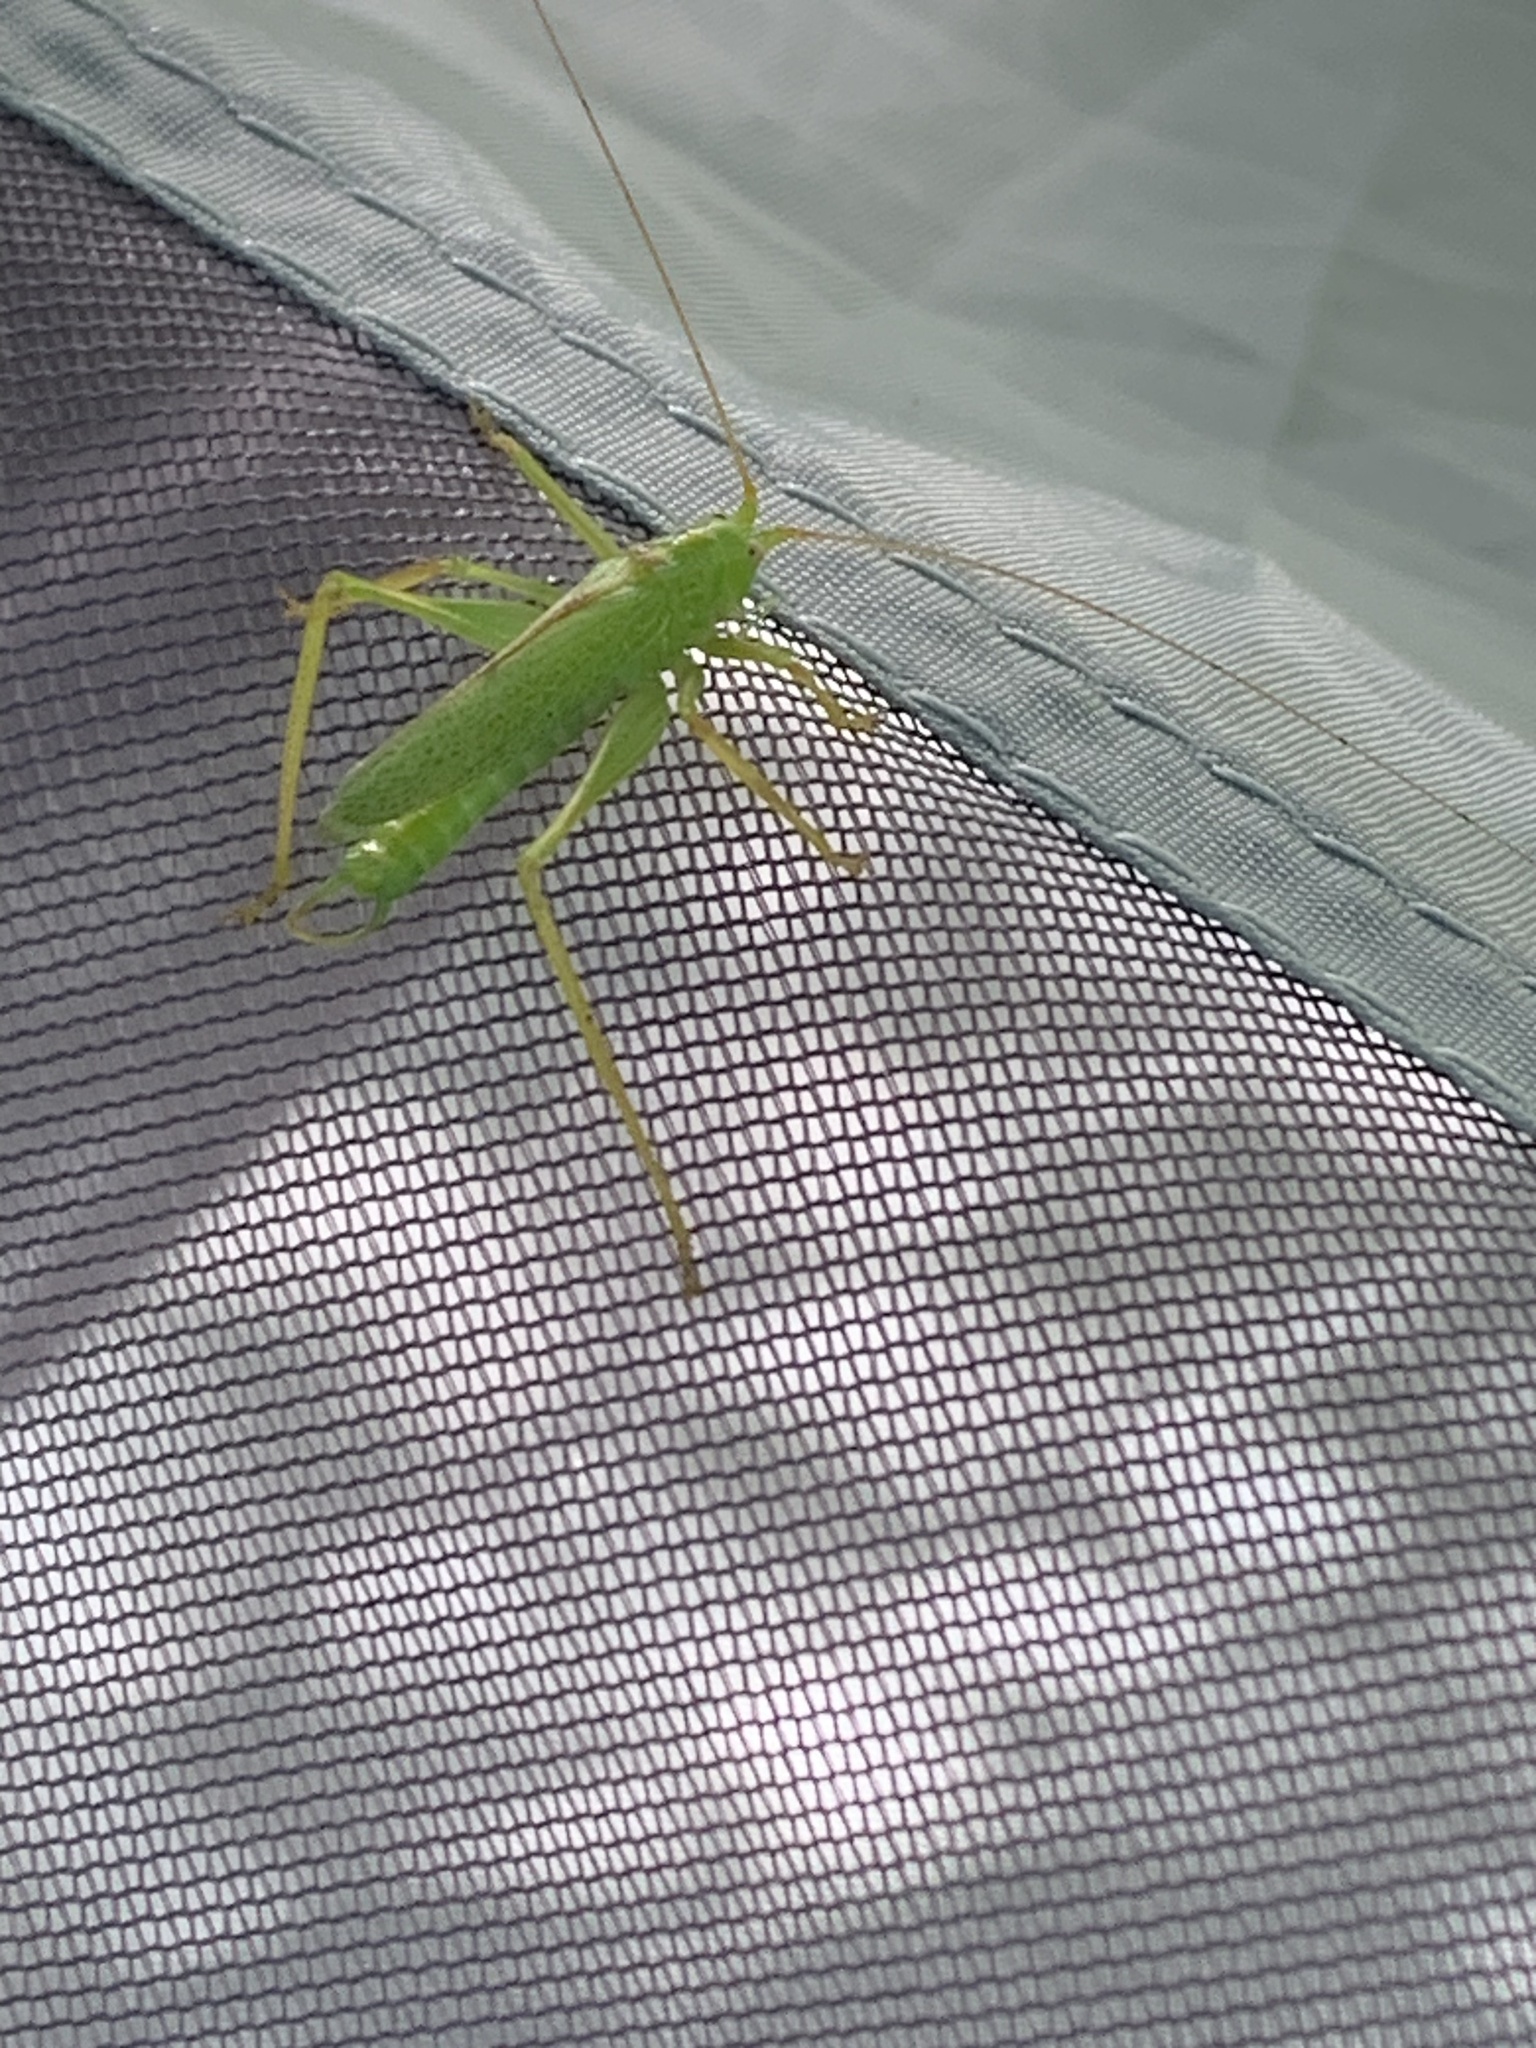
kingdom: Animalia
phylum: Arthropoda
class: Insecta
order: Orthoptera
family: Tettigoniidae
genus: Meconema
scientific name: Meconema thalassinum
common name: Oak bush-cricket
